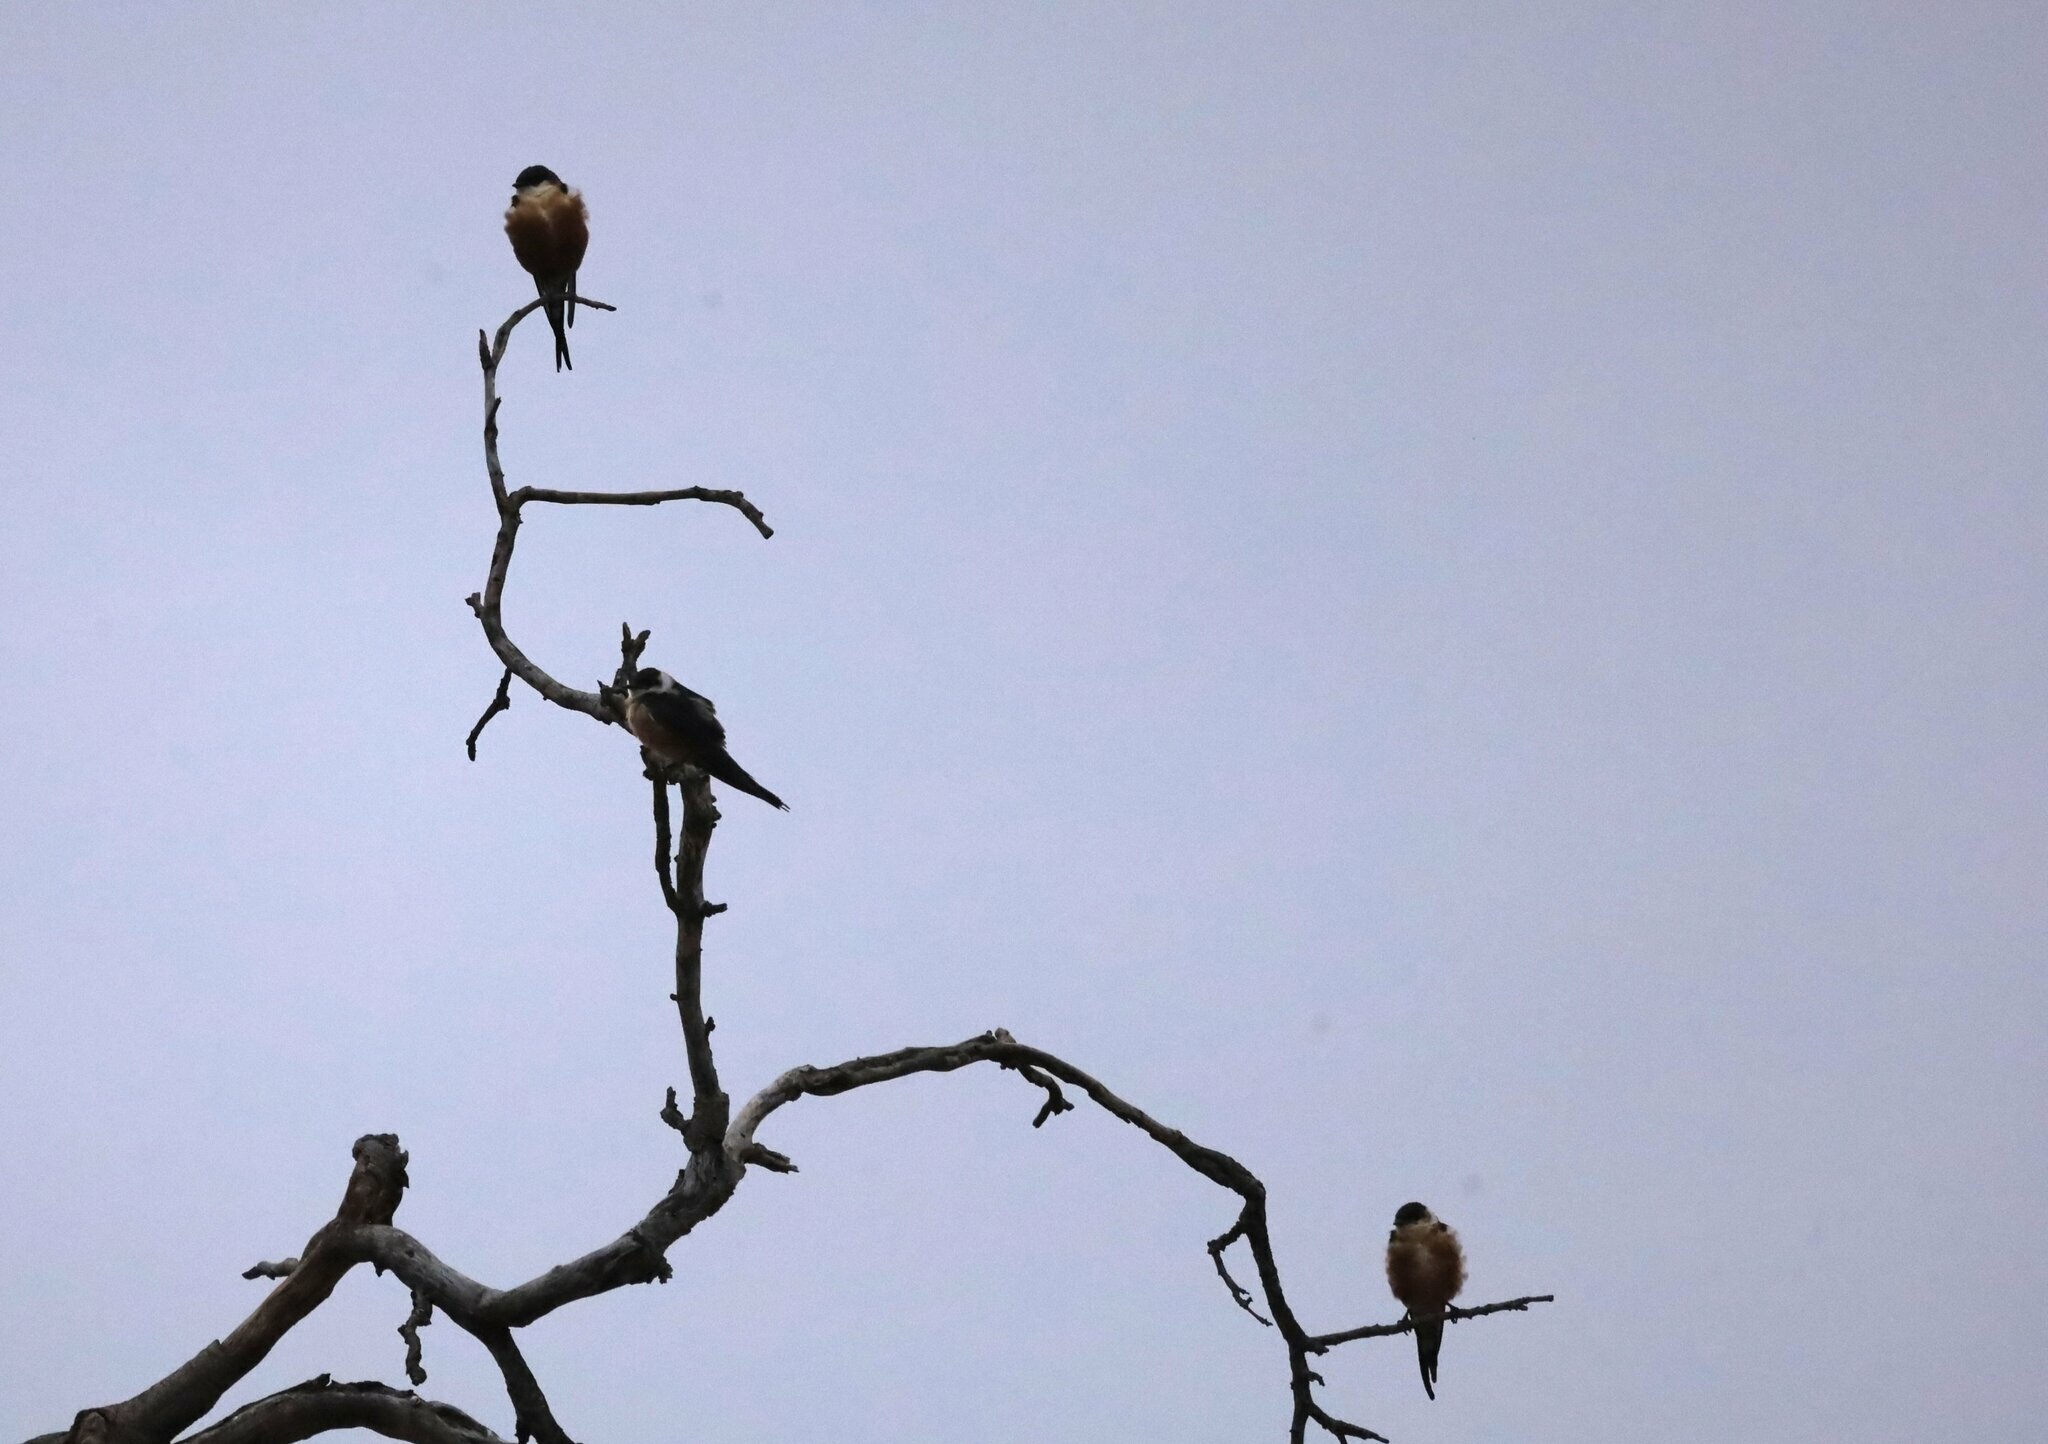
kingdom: Animalia
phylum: Chordata
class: Aves
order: Passeriformes
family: Hirundinidae
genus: Cecropis
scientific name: Cecropis senegalensis
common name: Mosque swallow
